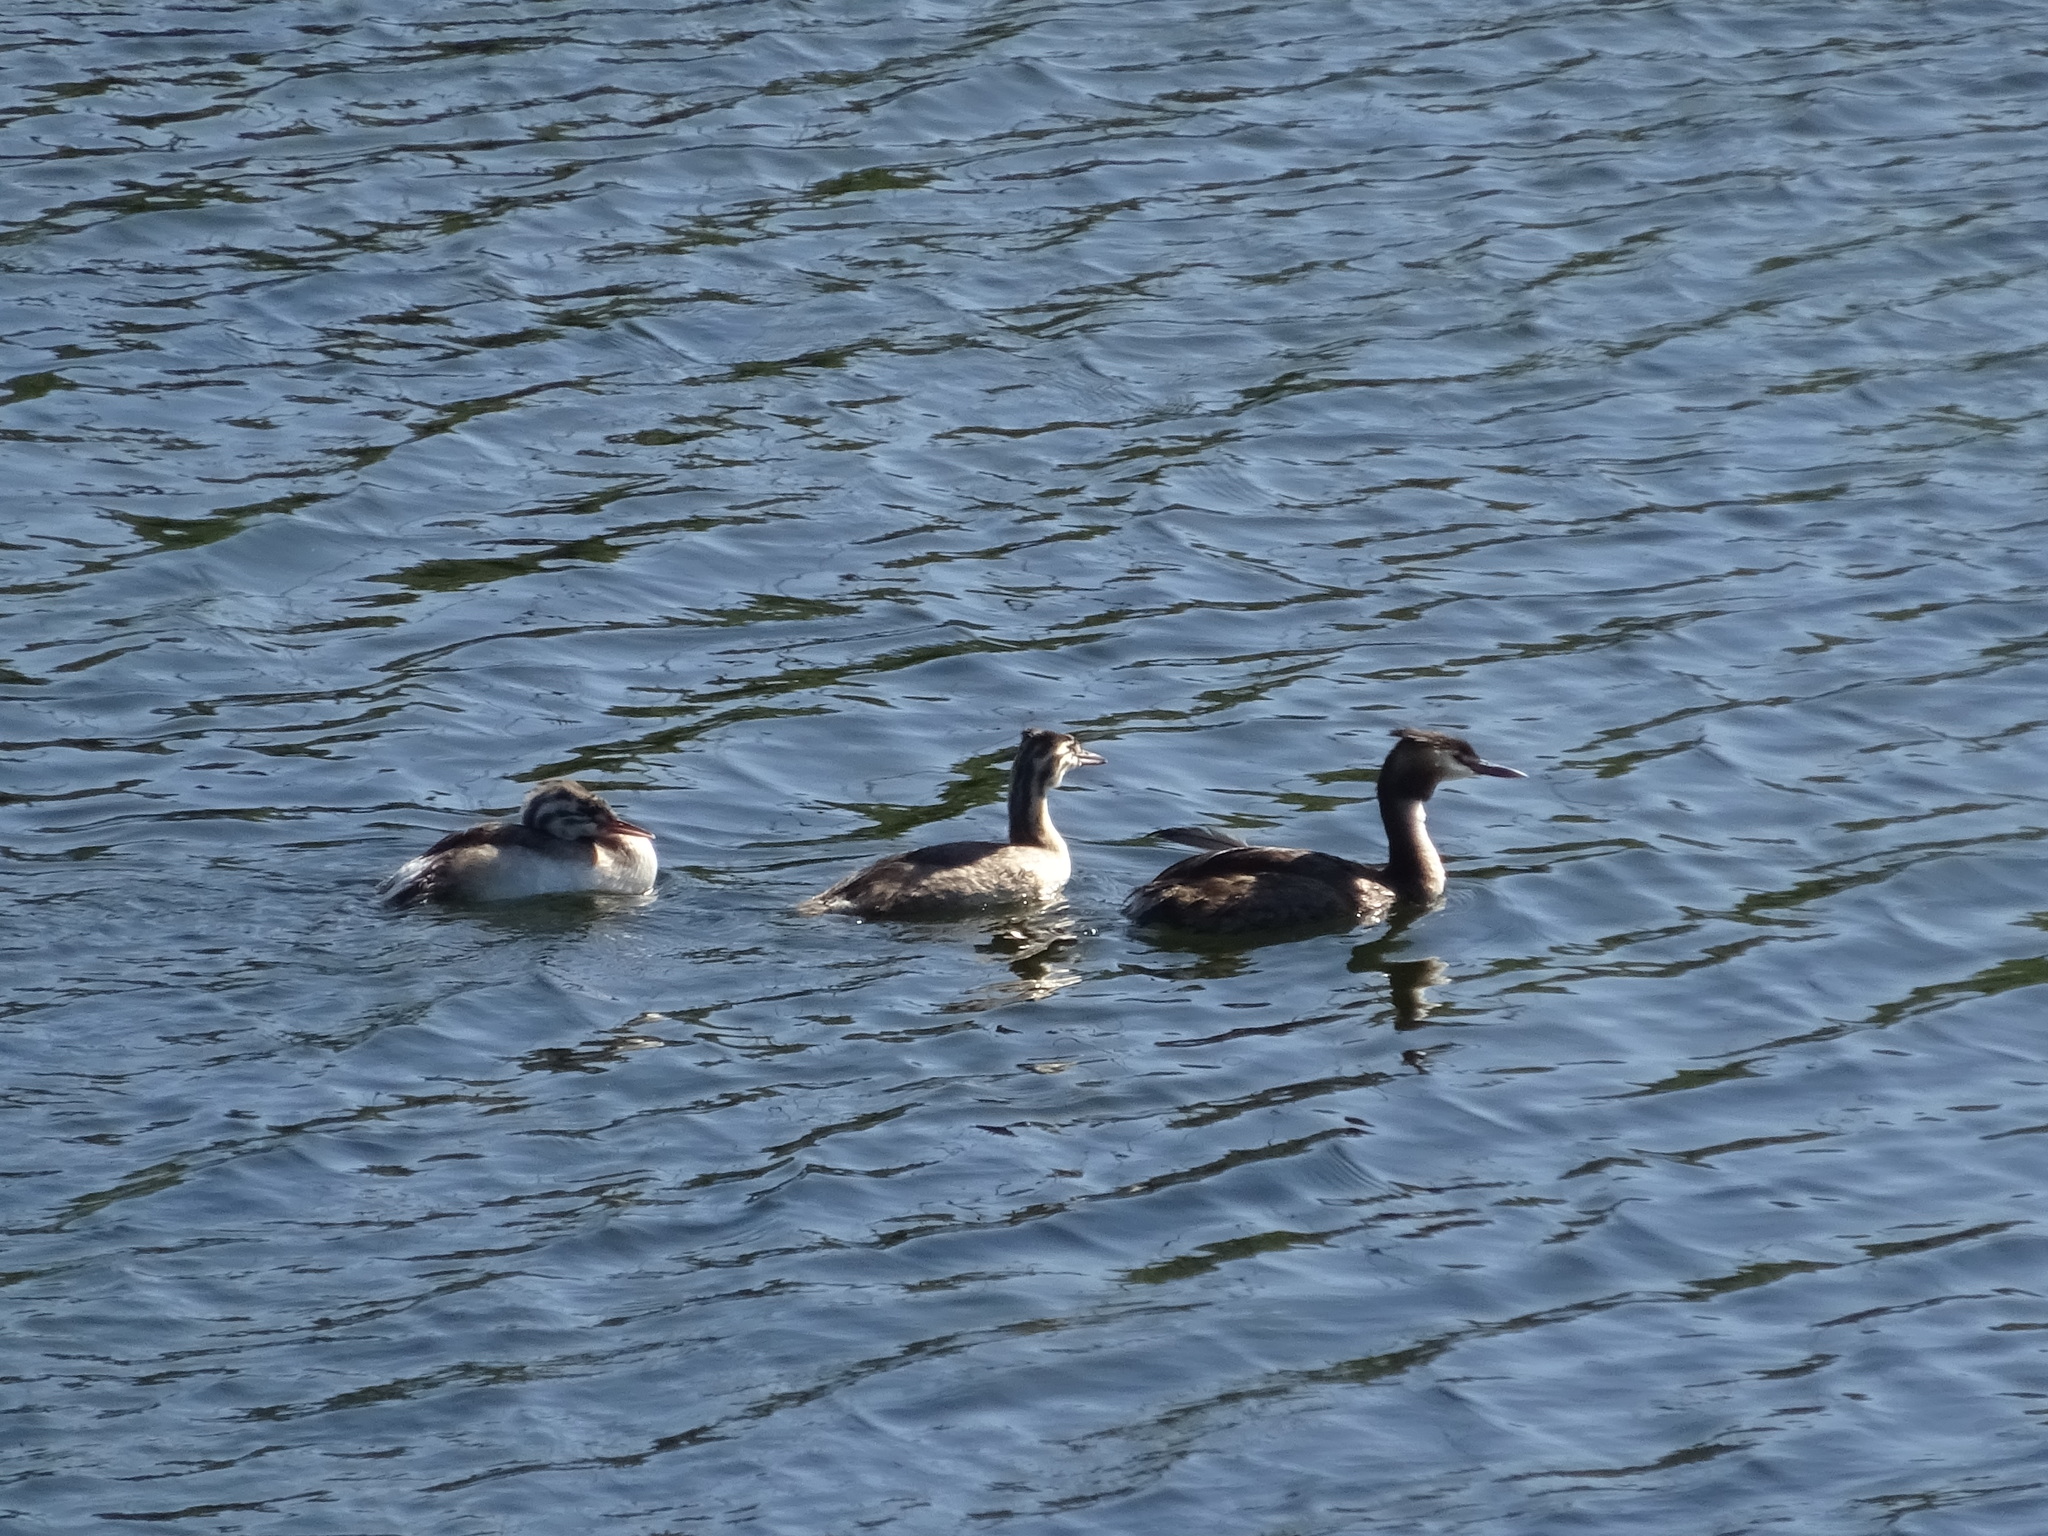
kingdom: Animalia
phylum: Chordata
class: Aves
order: Podicipediformes
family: Podicipedidae
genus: Podiceps
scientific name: Podiceps cristatus
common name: Great crested grebe
